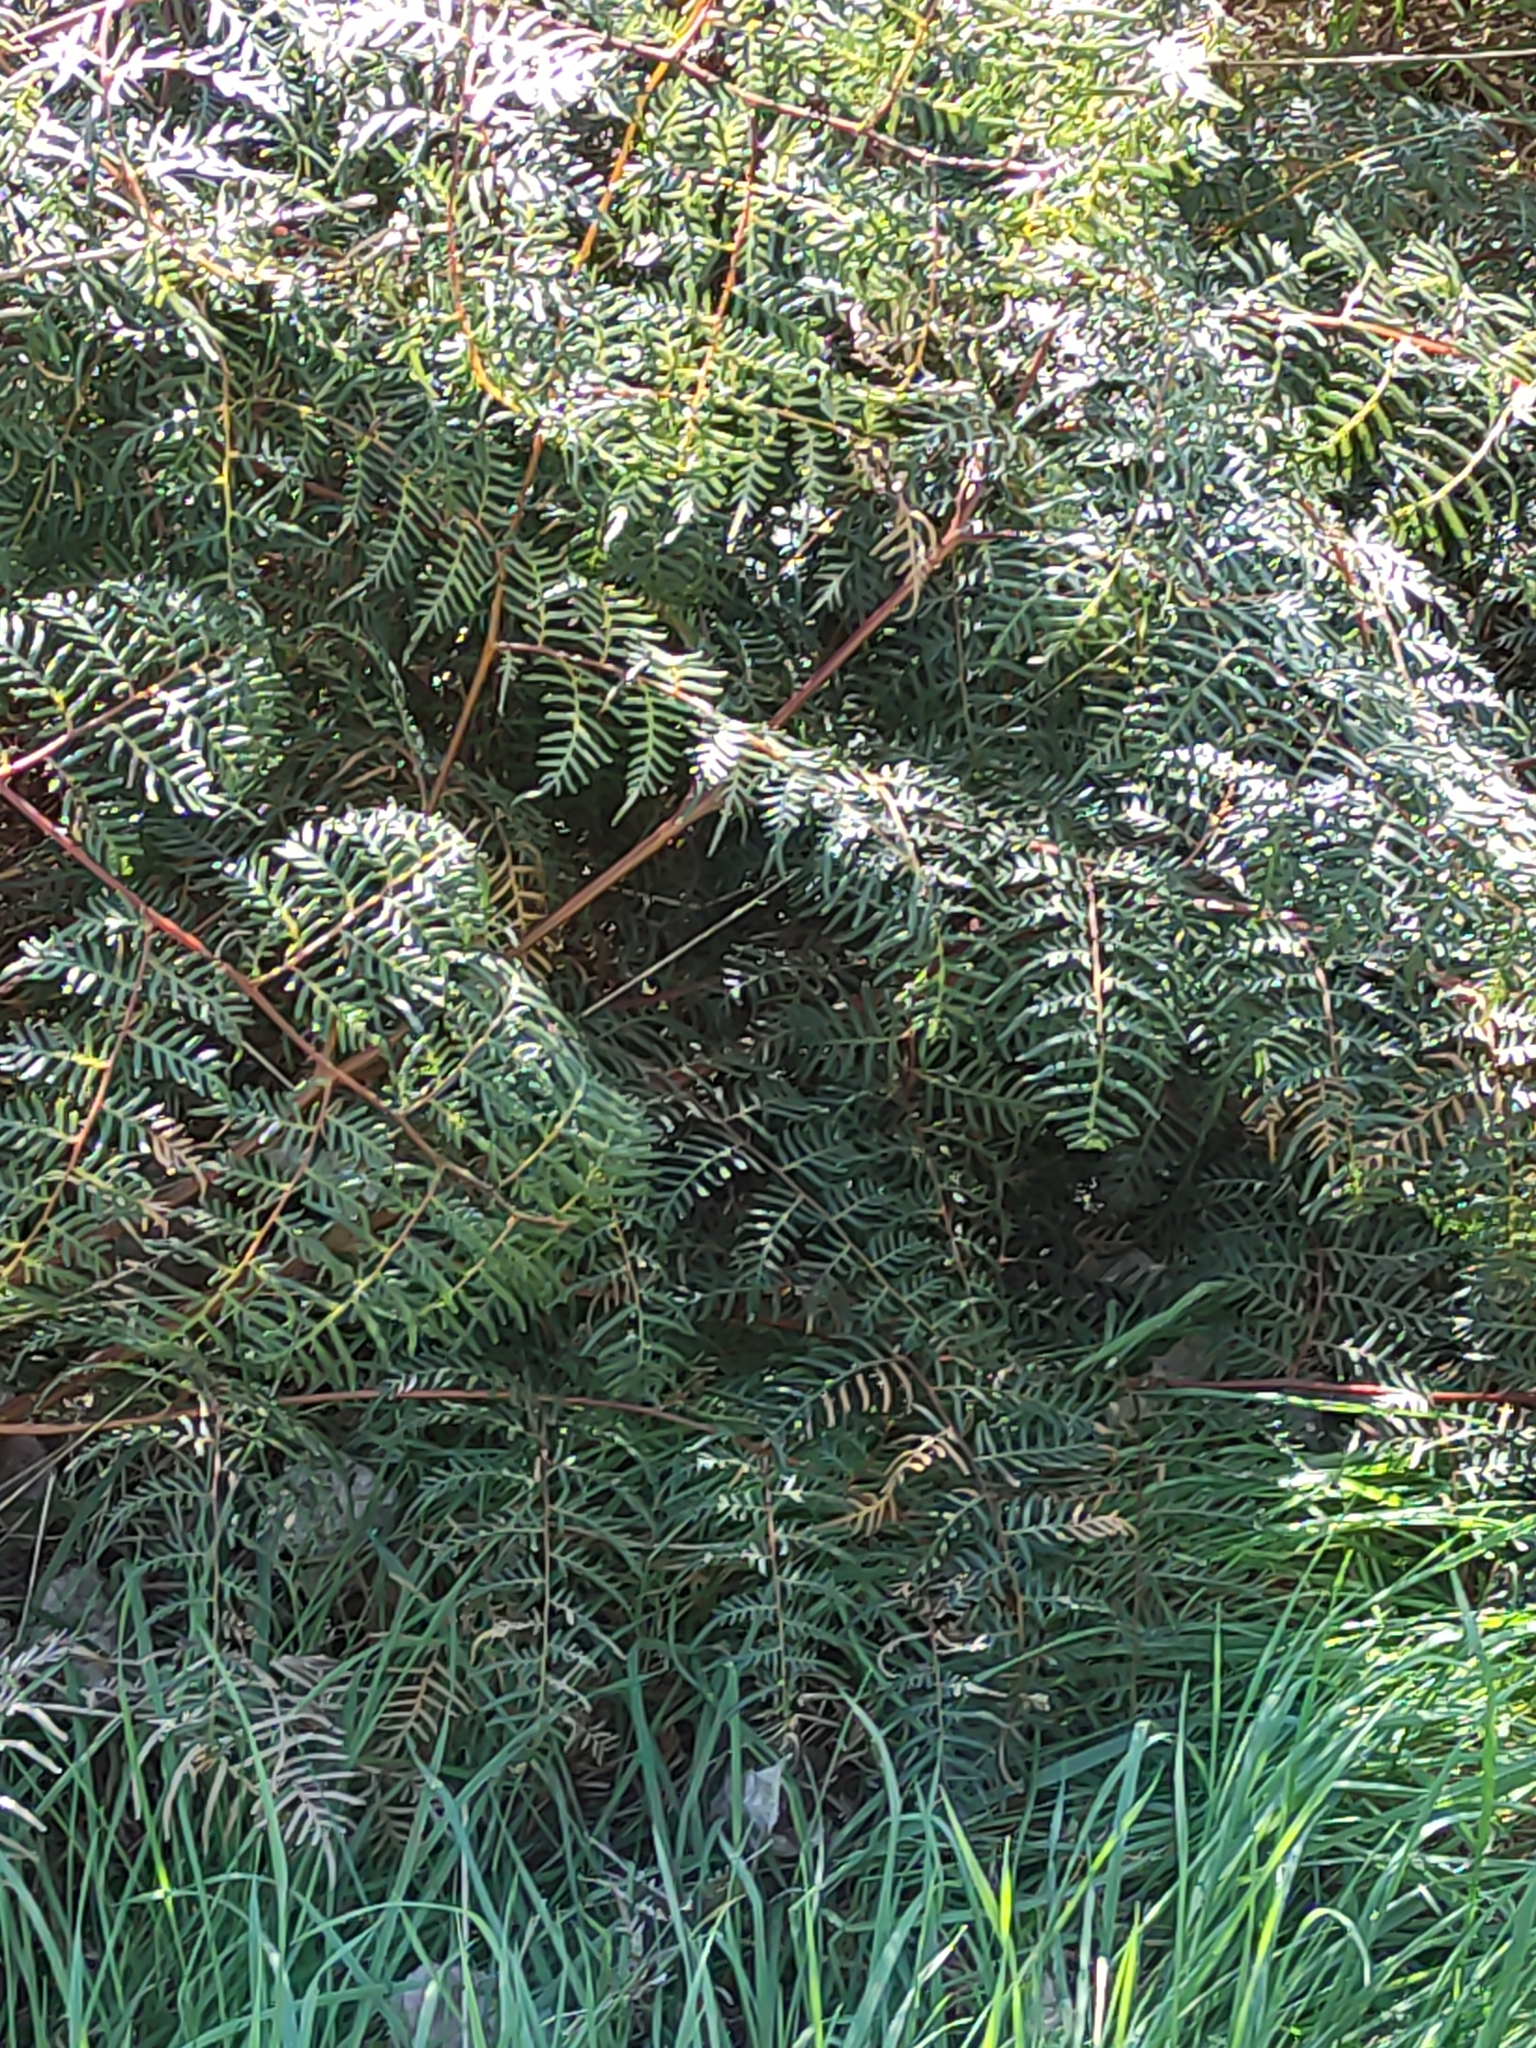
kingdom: Plantae
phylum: Tracheophyta
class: Polypodiopsida
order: Polypodiales
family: Dennstaedtiaceae
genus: Pteridium
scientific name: Pteridium esculentum
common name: Bracken fern
